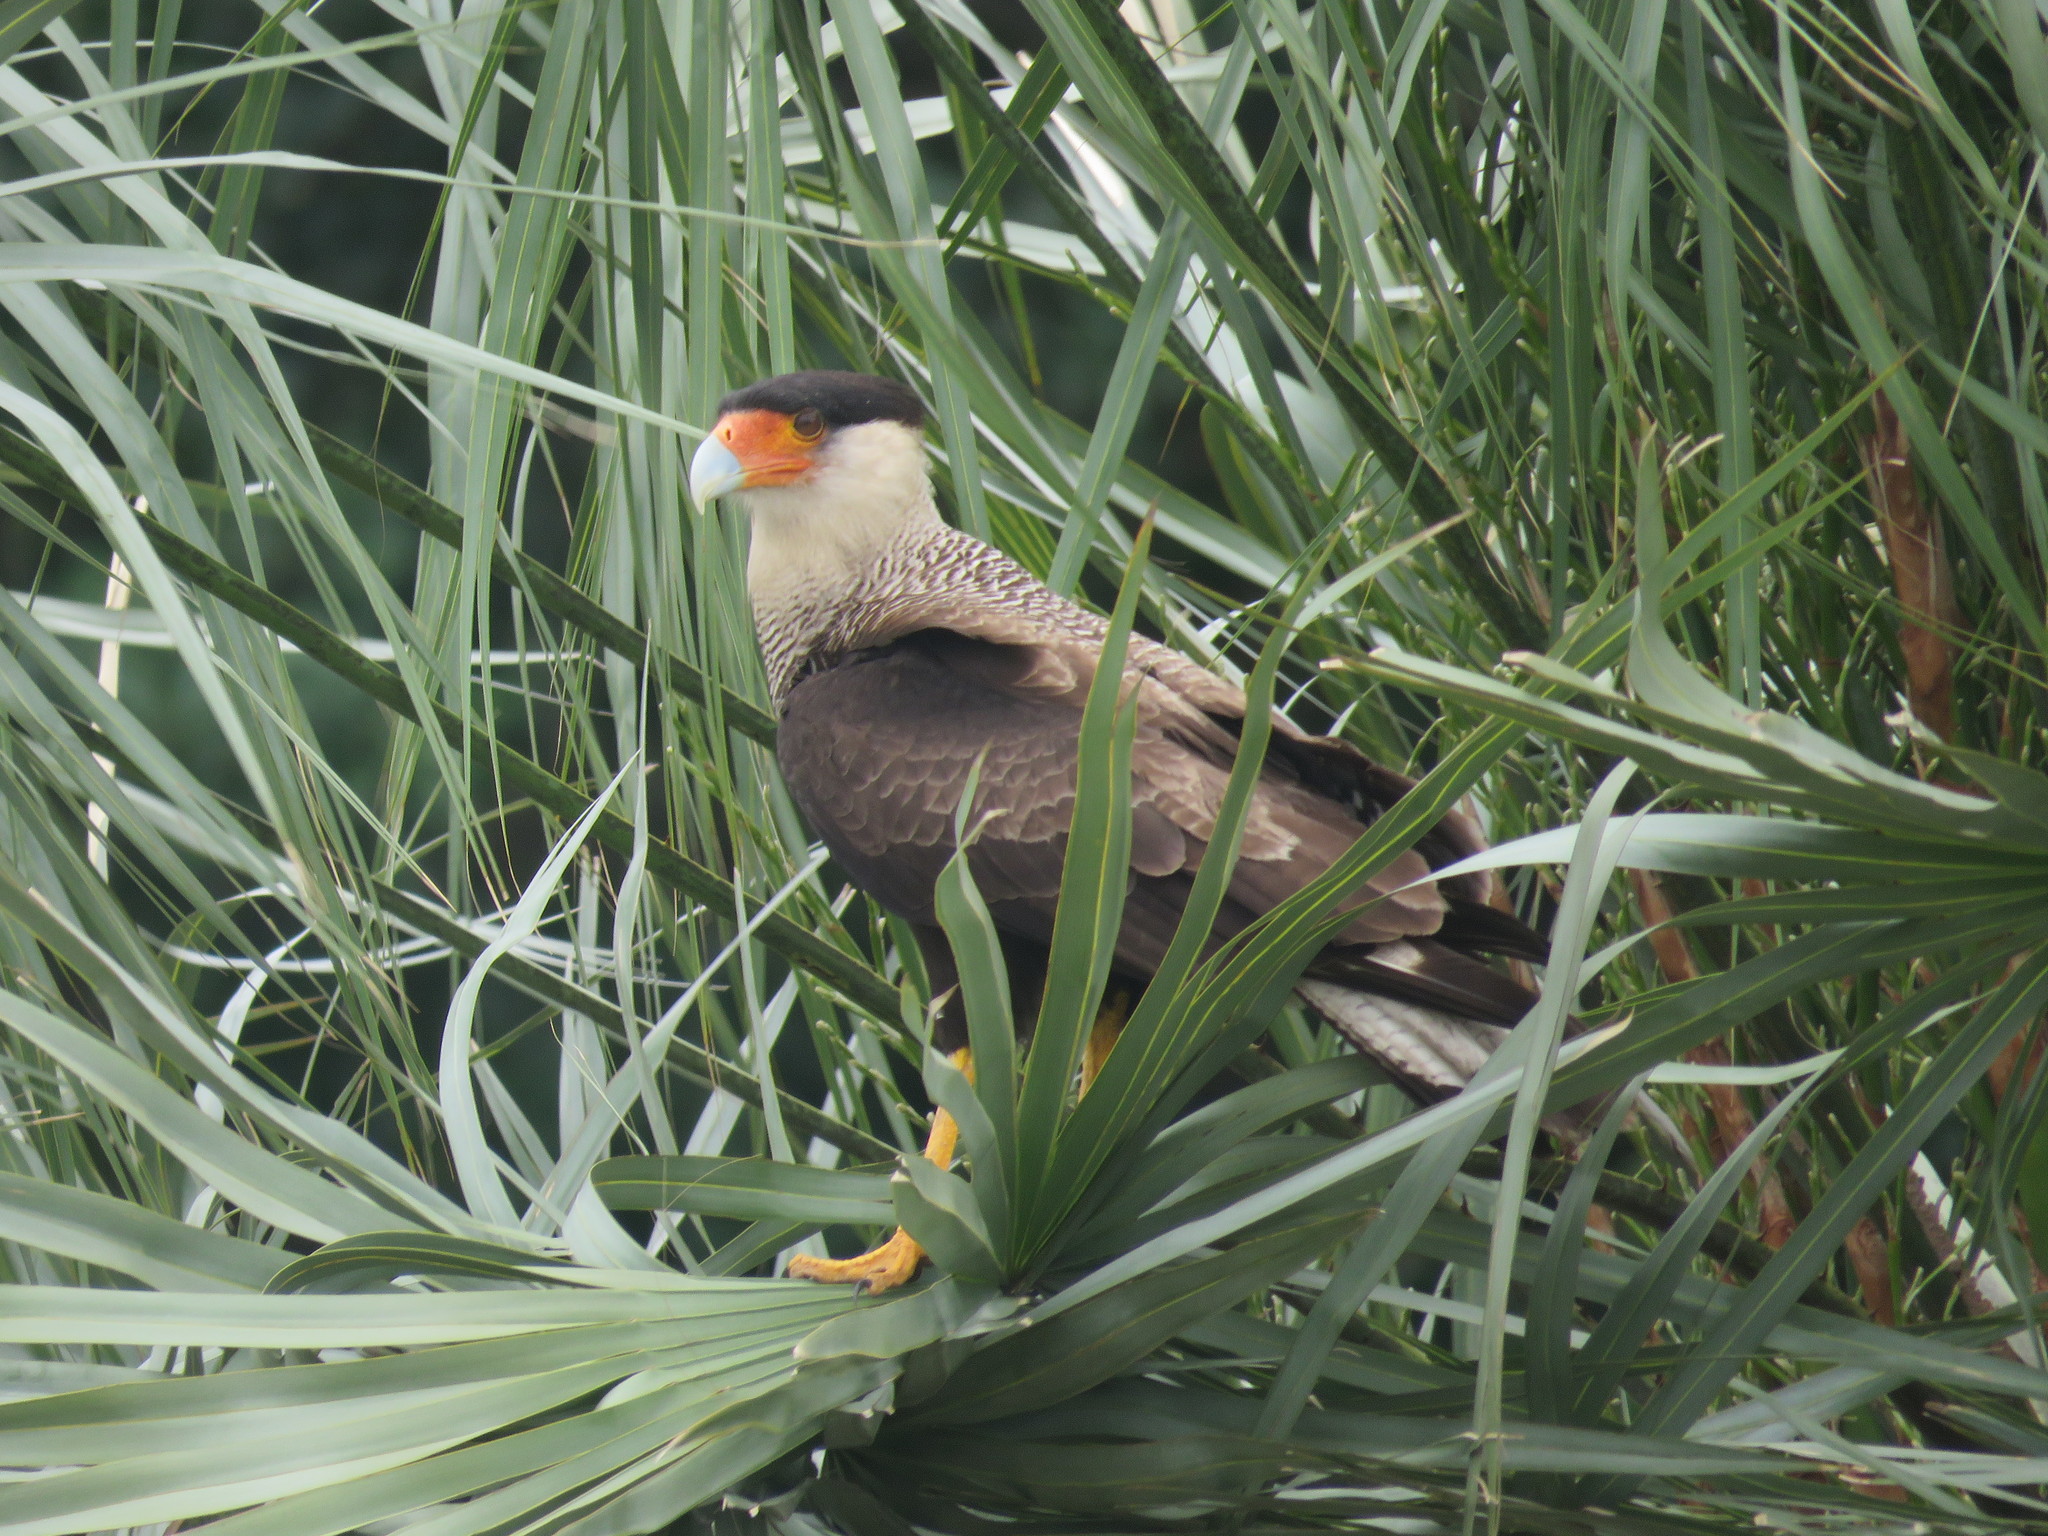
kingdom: Animalia
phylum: Chordata
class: Aves
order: Falconiformes
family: Falconidae
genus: Caracara
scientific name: Caracara plancus
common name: Southern caracara
